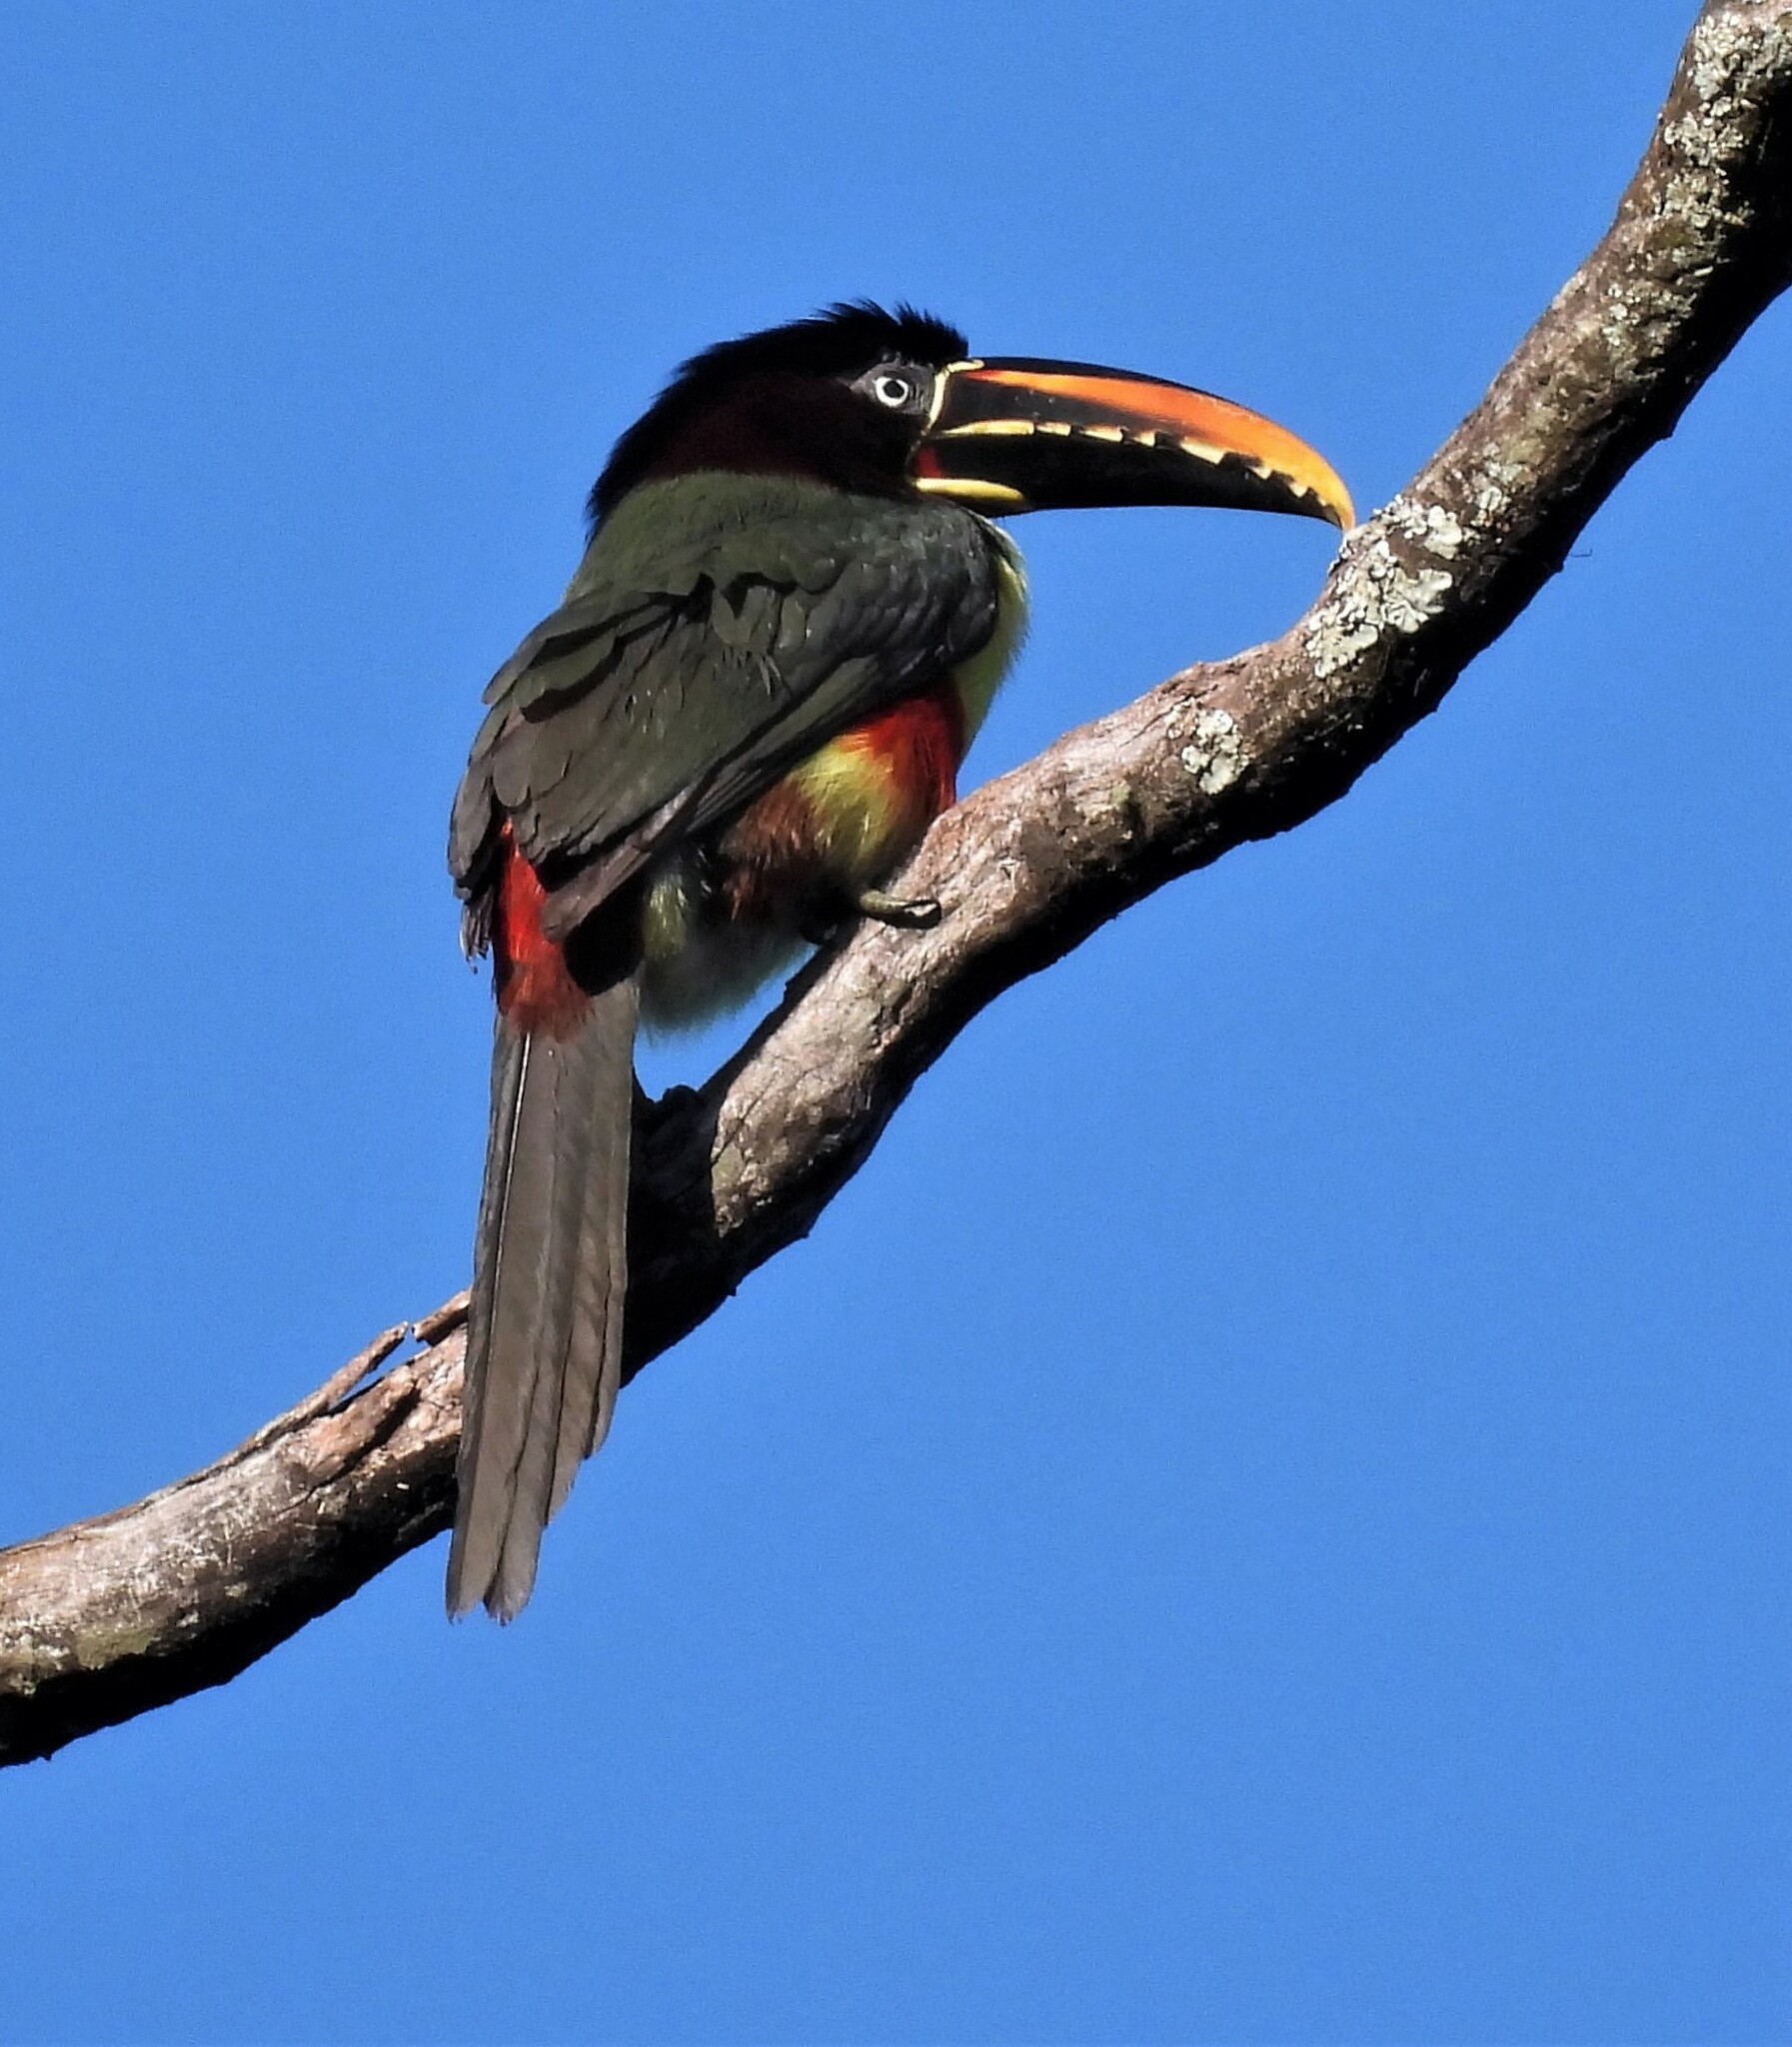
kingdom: Animalia
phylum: Chordata
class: Aves
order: Piciformes
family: Ramphastidae
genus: Pteroglossus
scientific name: Pteroglossus castanotis
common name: Chestnut-eared aracari
